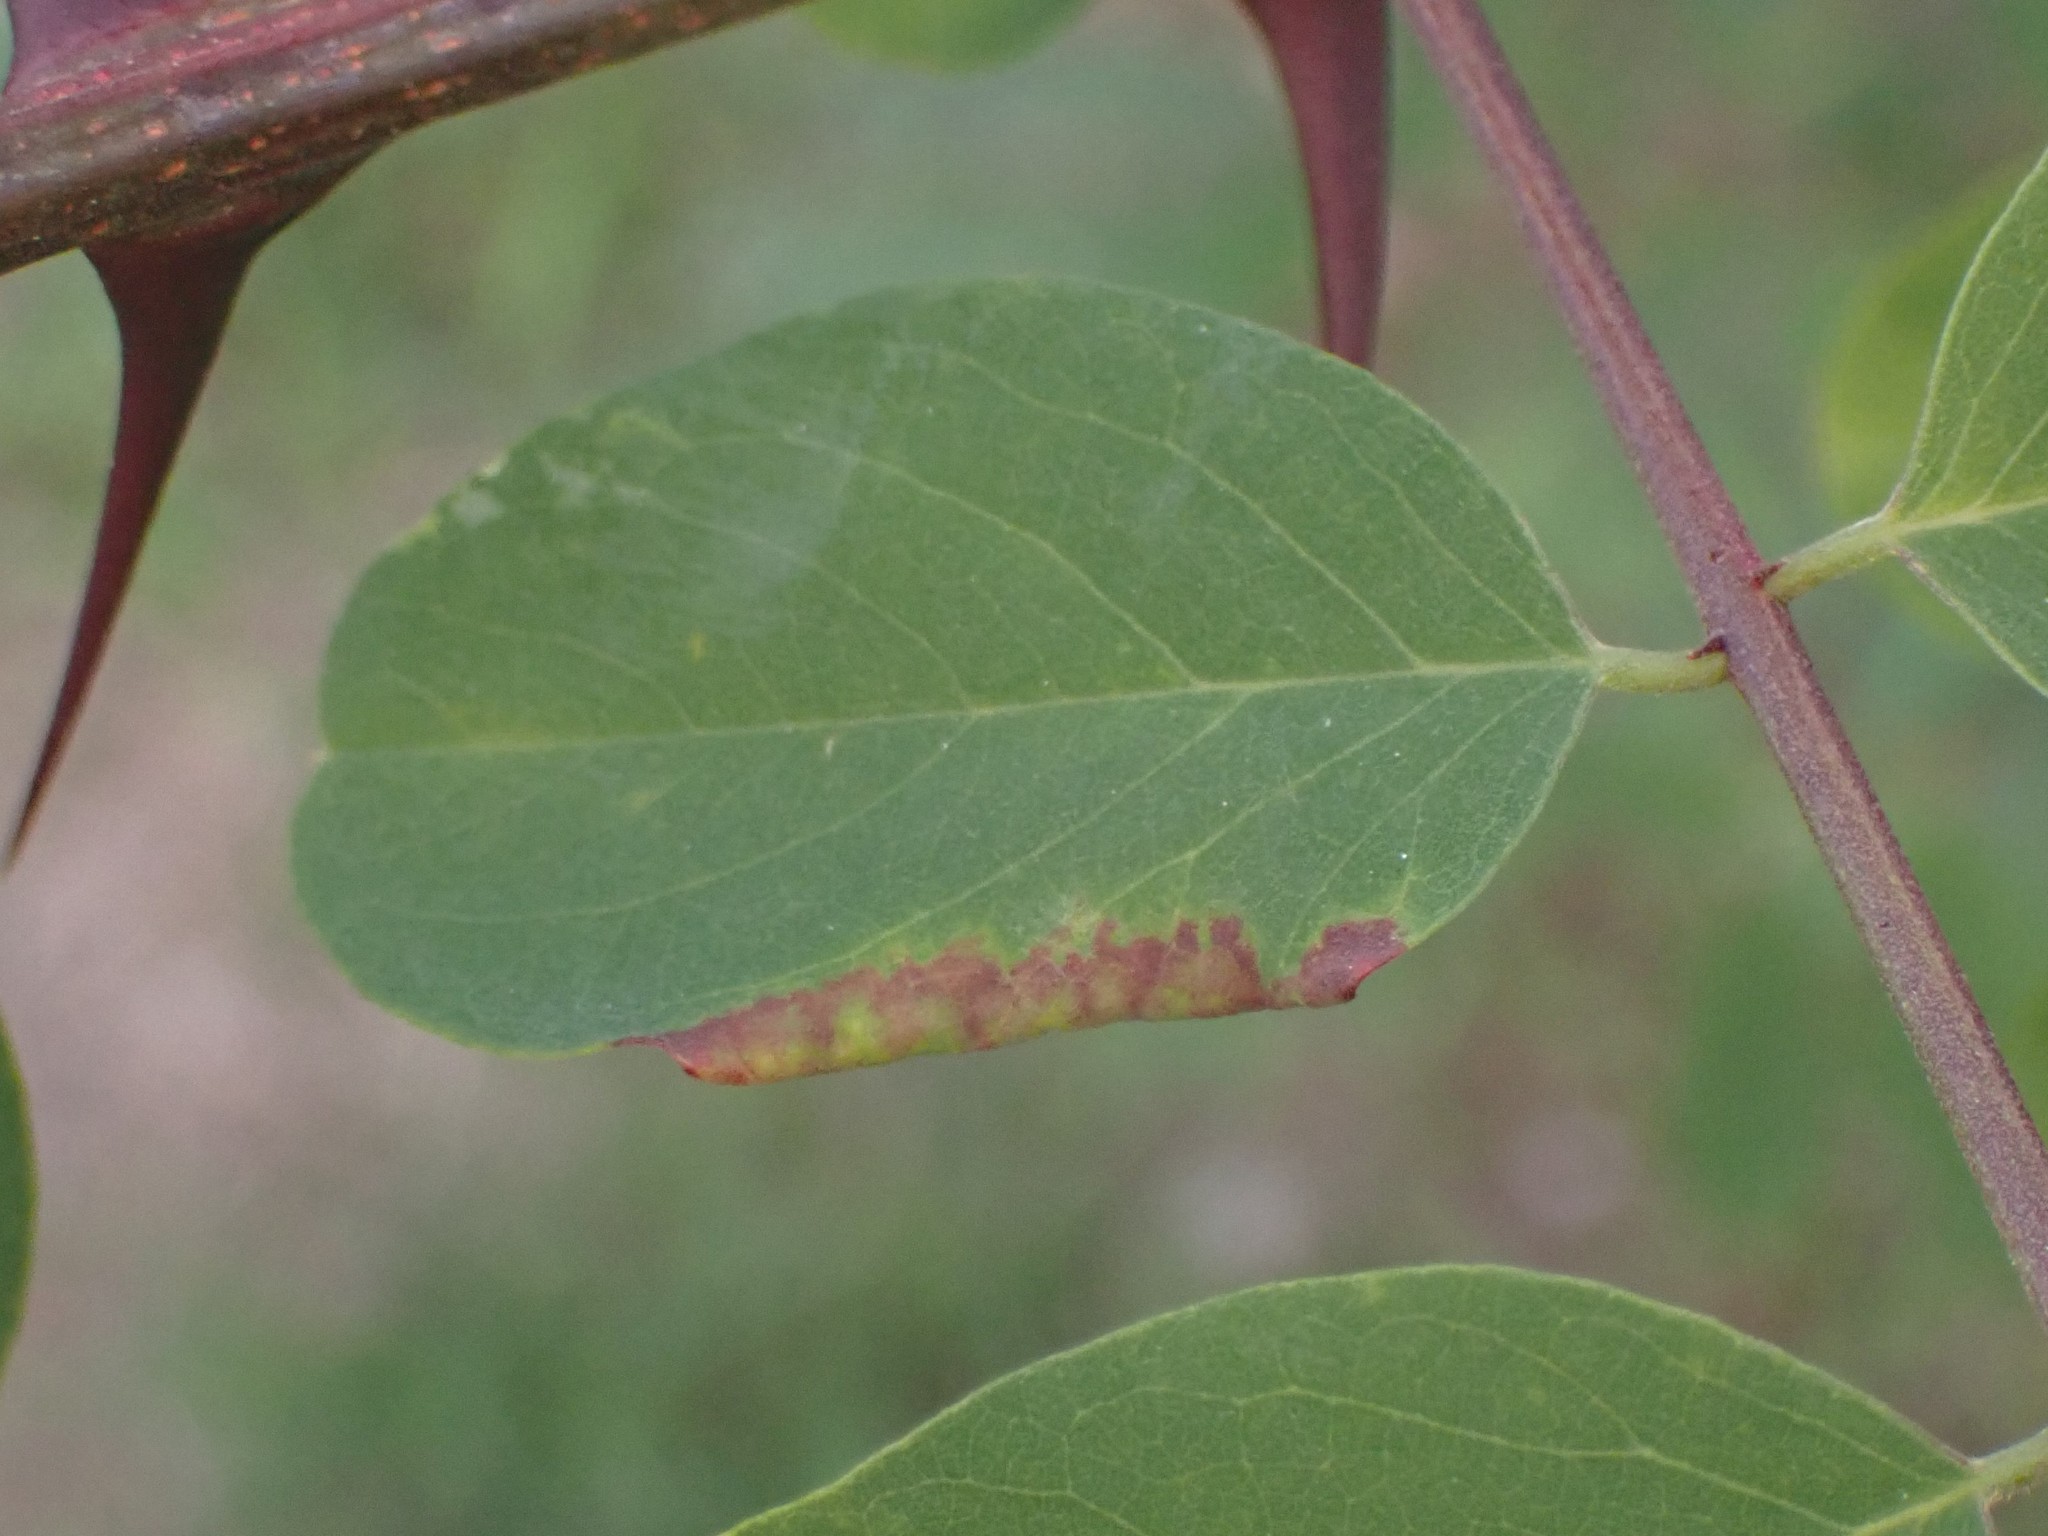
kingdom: Animalia
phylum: Arthropoda
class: Insecta
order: Diptera
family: Cecidomyiidae
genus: Obolodiplosis
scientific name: Obolodiplosis robiniae
